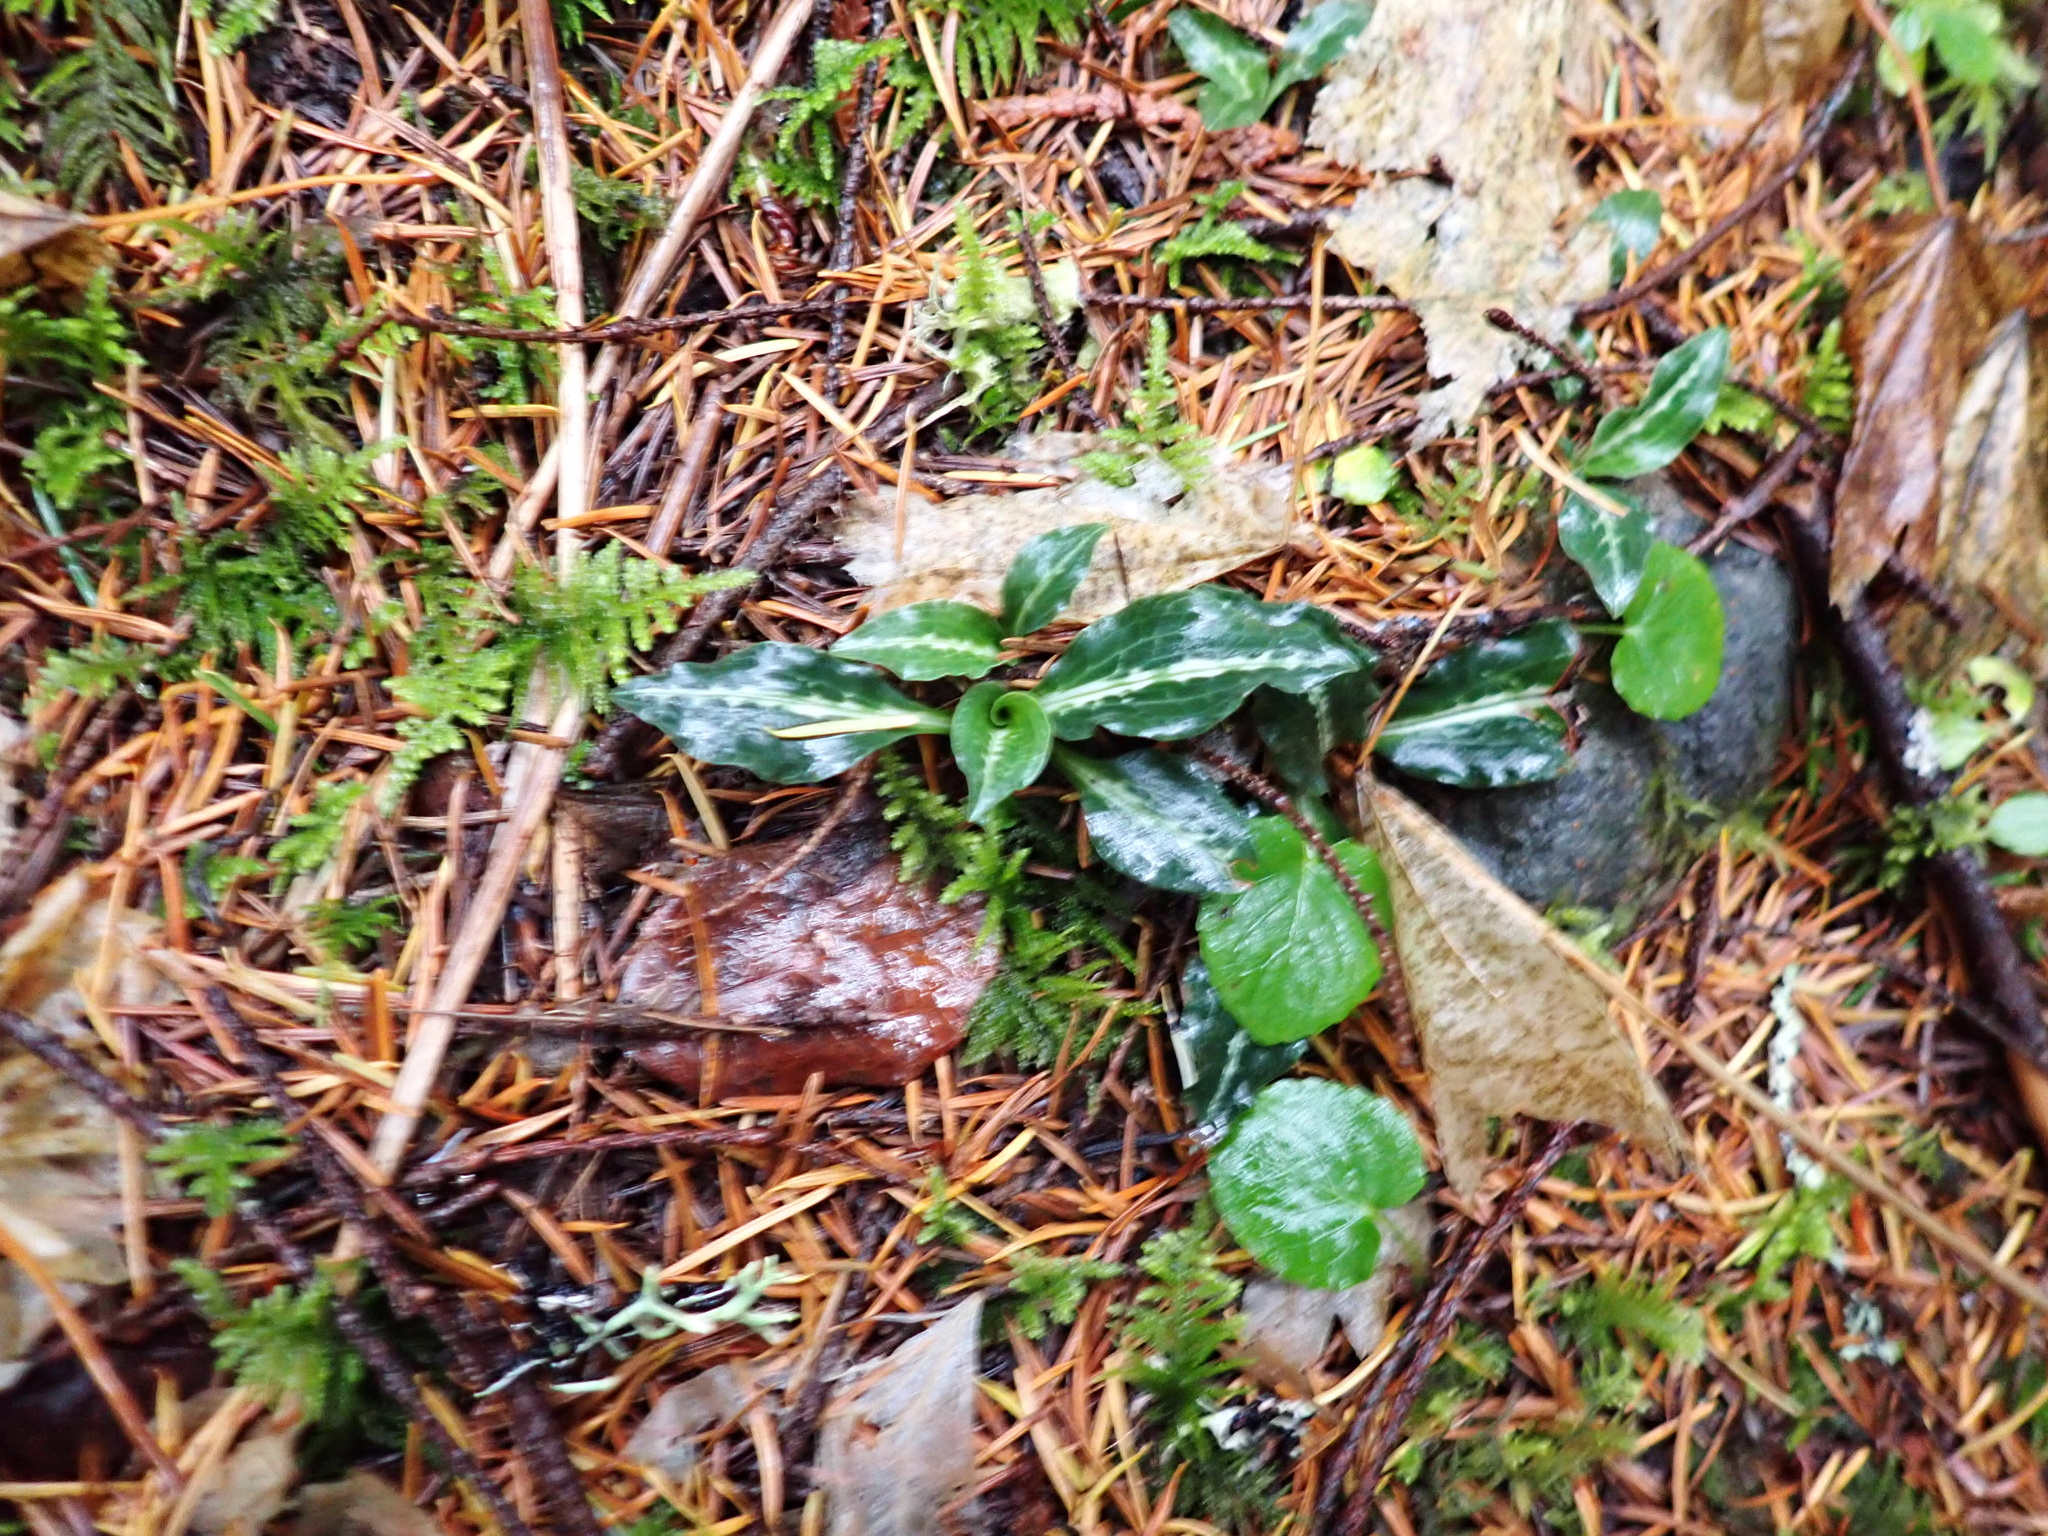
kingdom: Plantae
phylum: Tracheophyta
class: Liliopsida
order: Asparagales
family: Orchidaceae
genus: Goodyera
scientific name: Goodyera oblongifolia
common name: Giant rattlesnake-plantain
